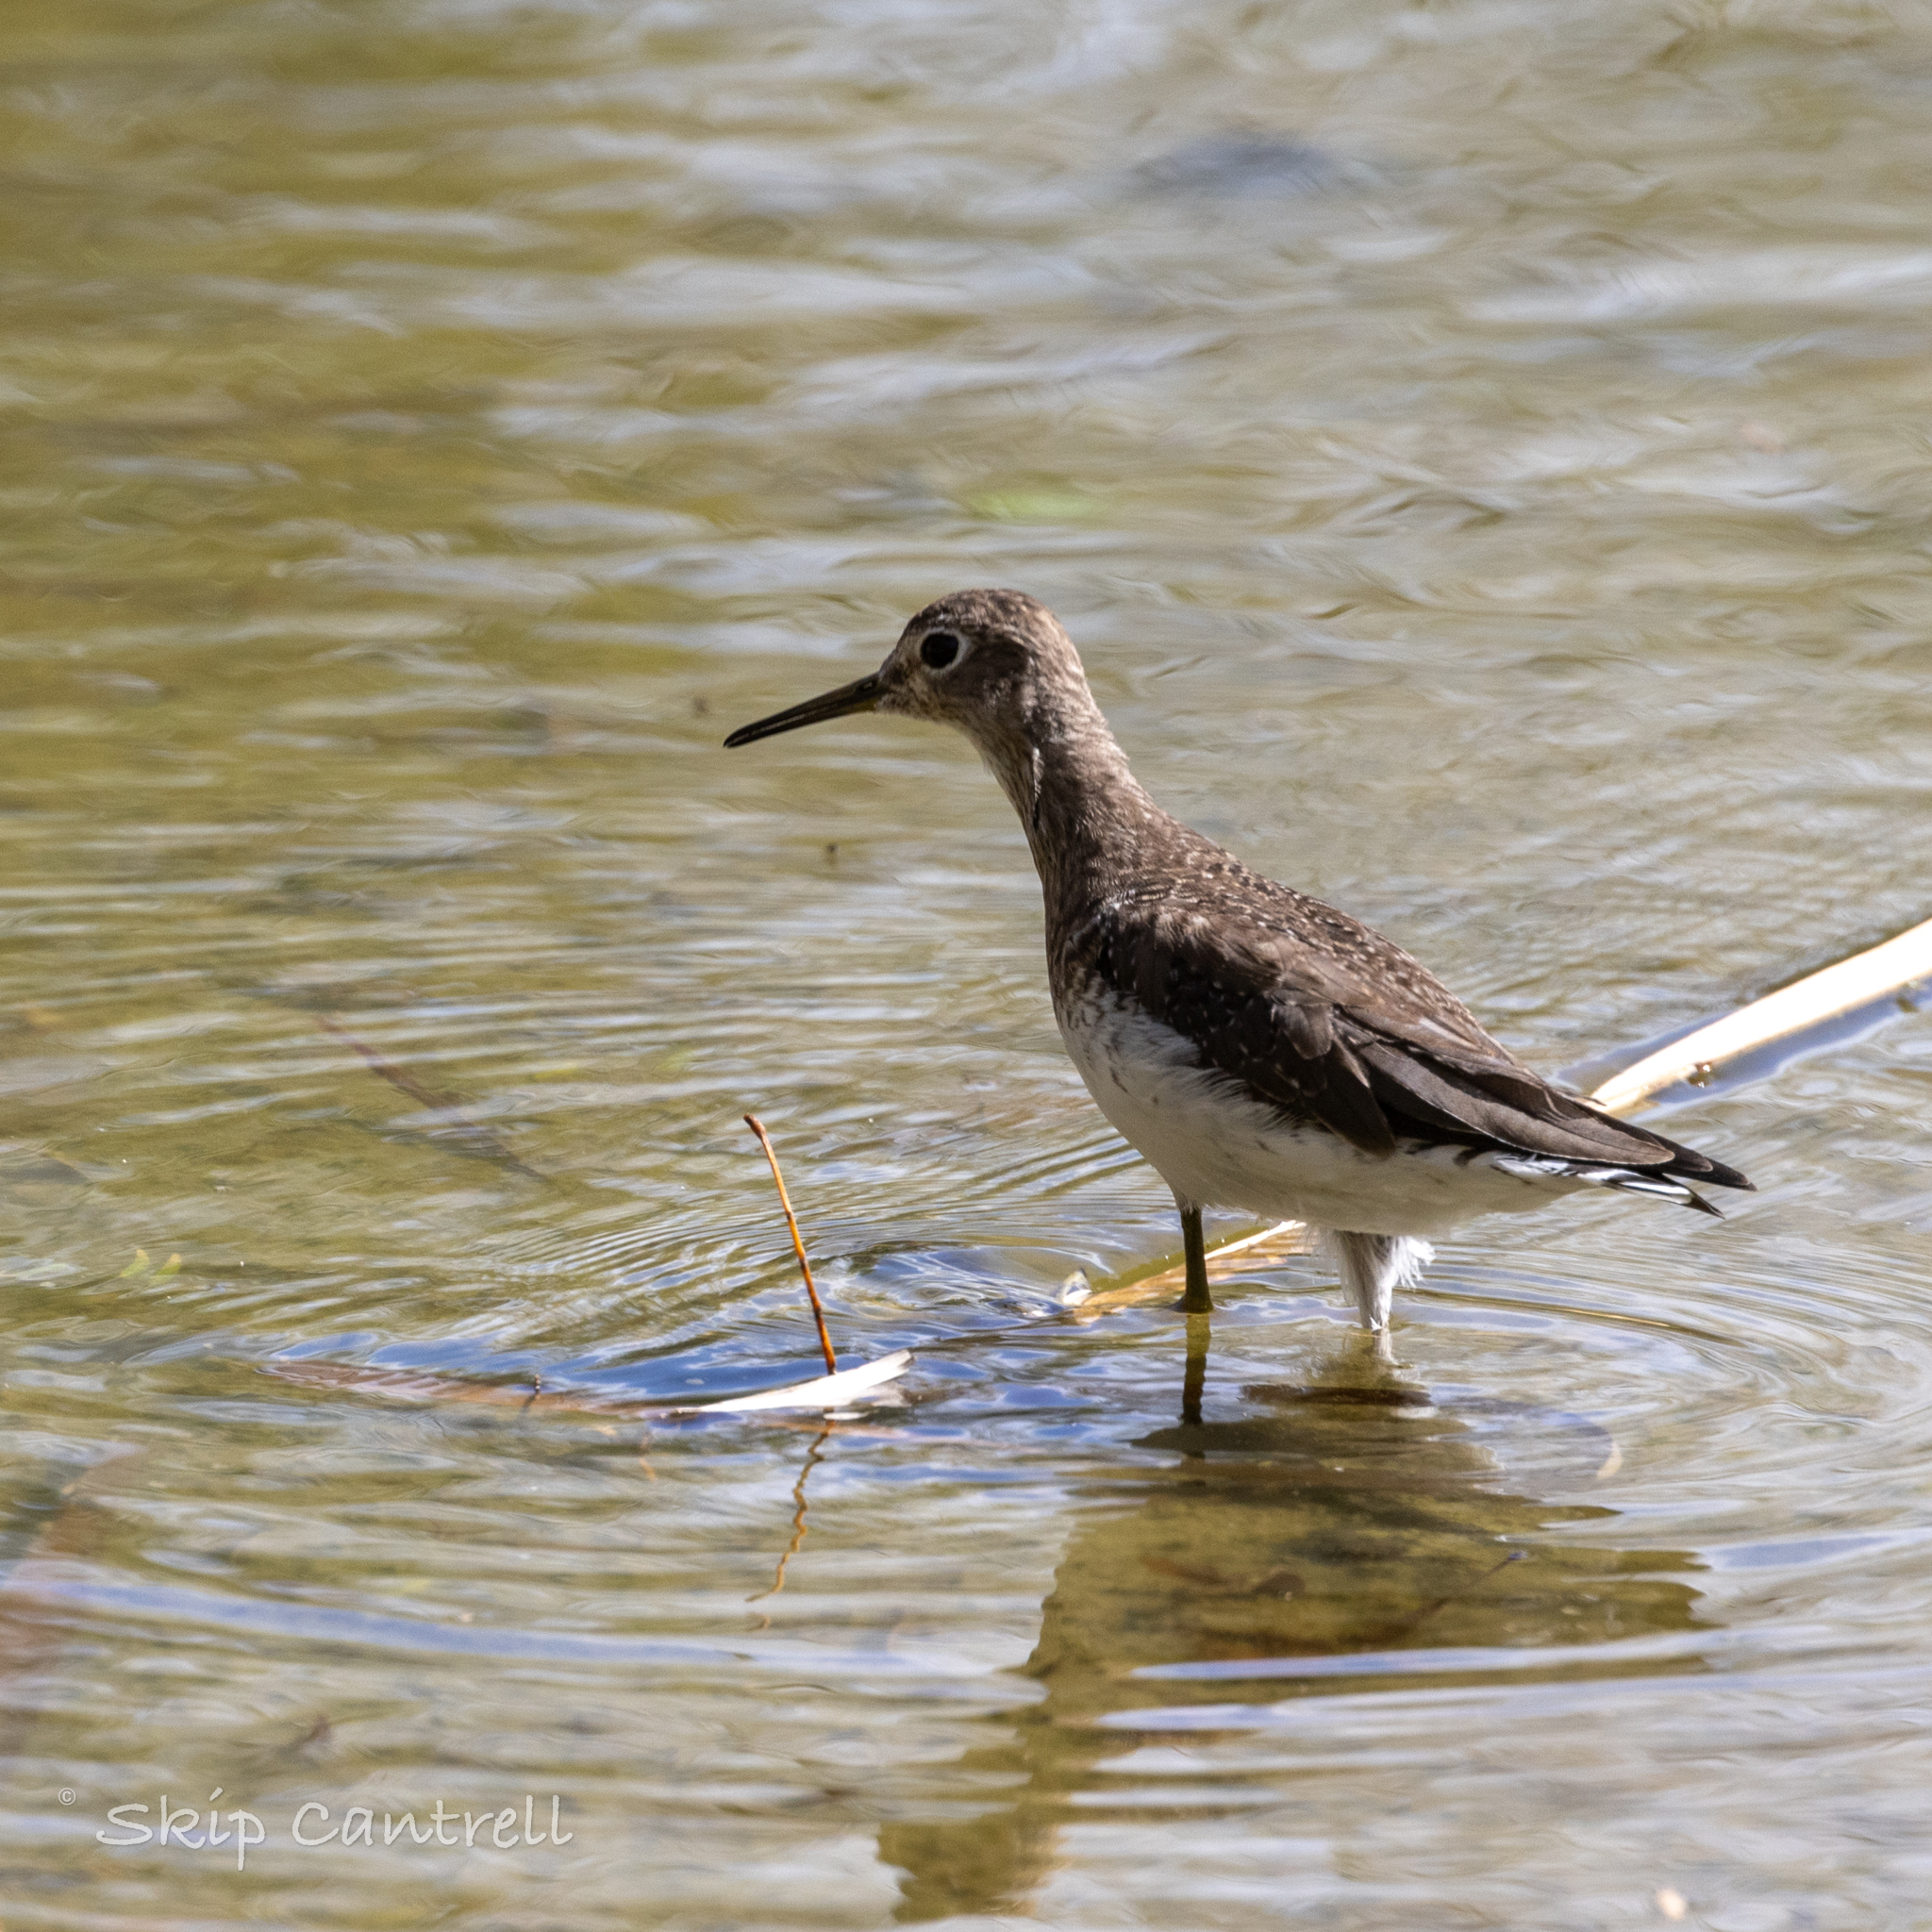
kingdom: Animalia
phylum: Chordata
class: Aves
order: Charadriiformes
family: Scolopacidae
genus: Tringa
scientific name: Tringa solitaria
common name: Solitary sandpiper
